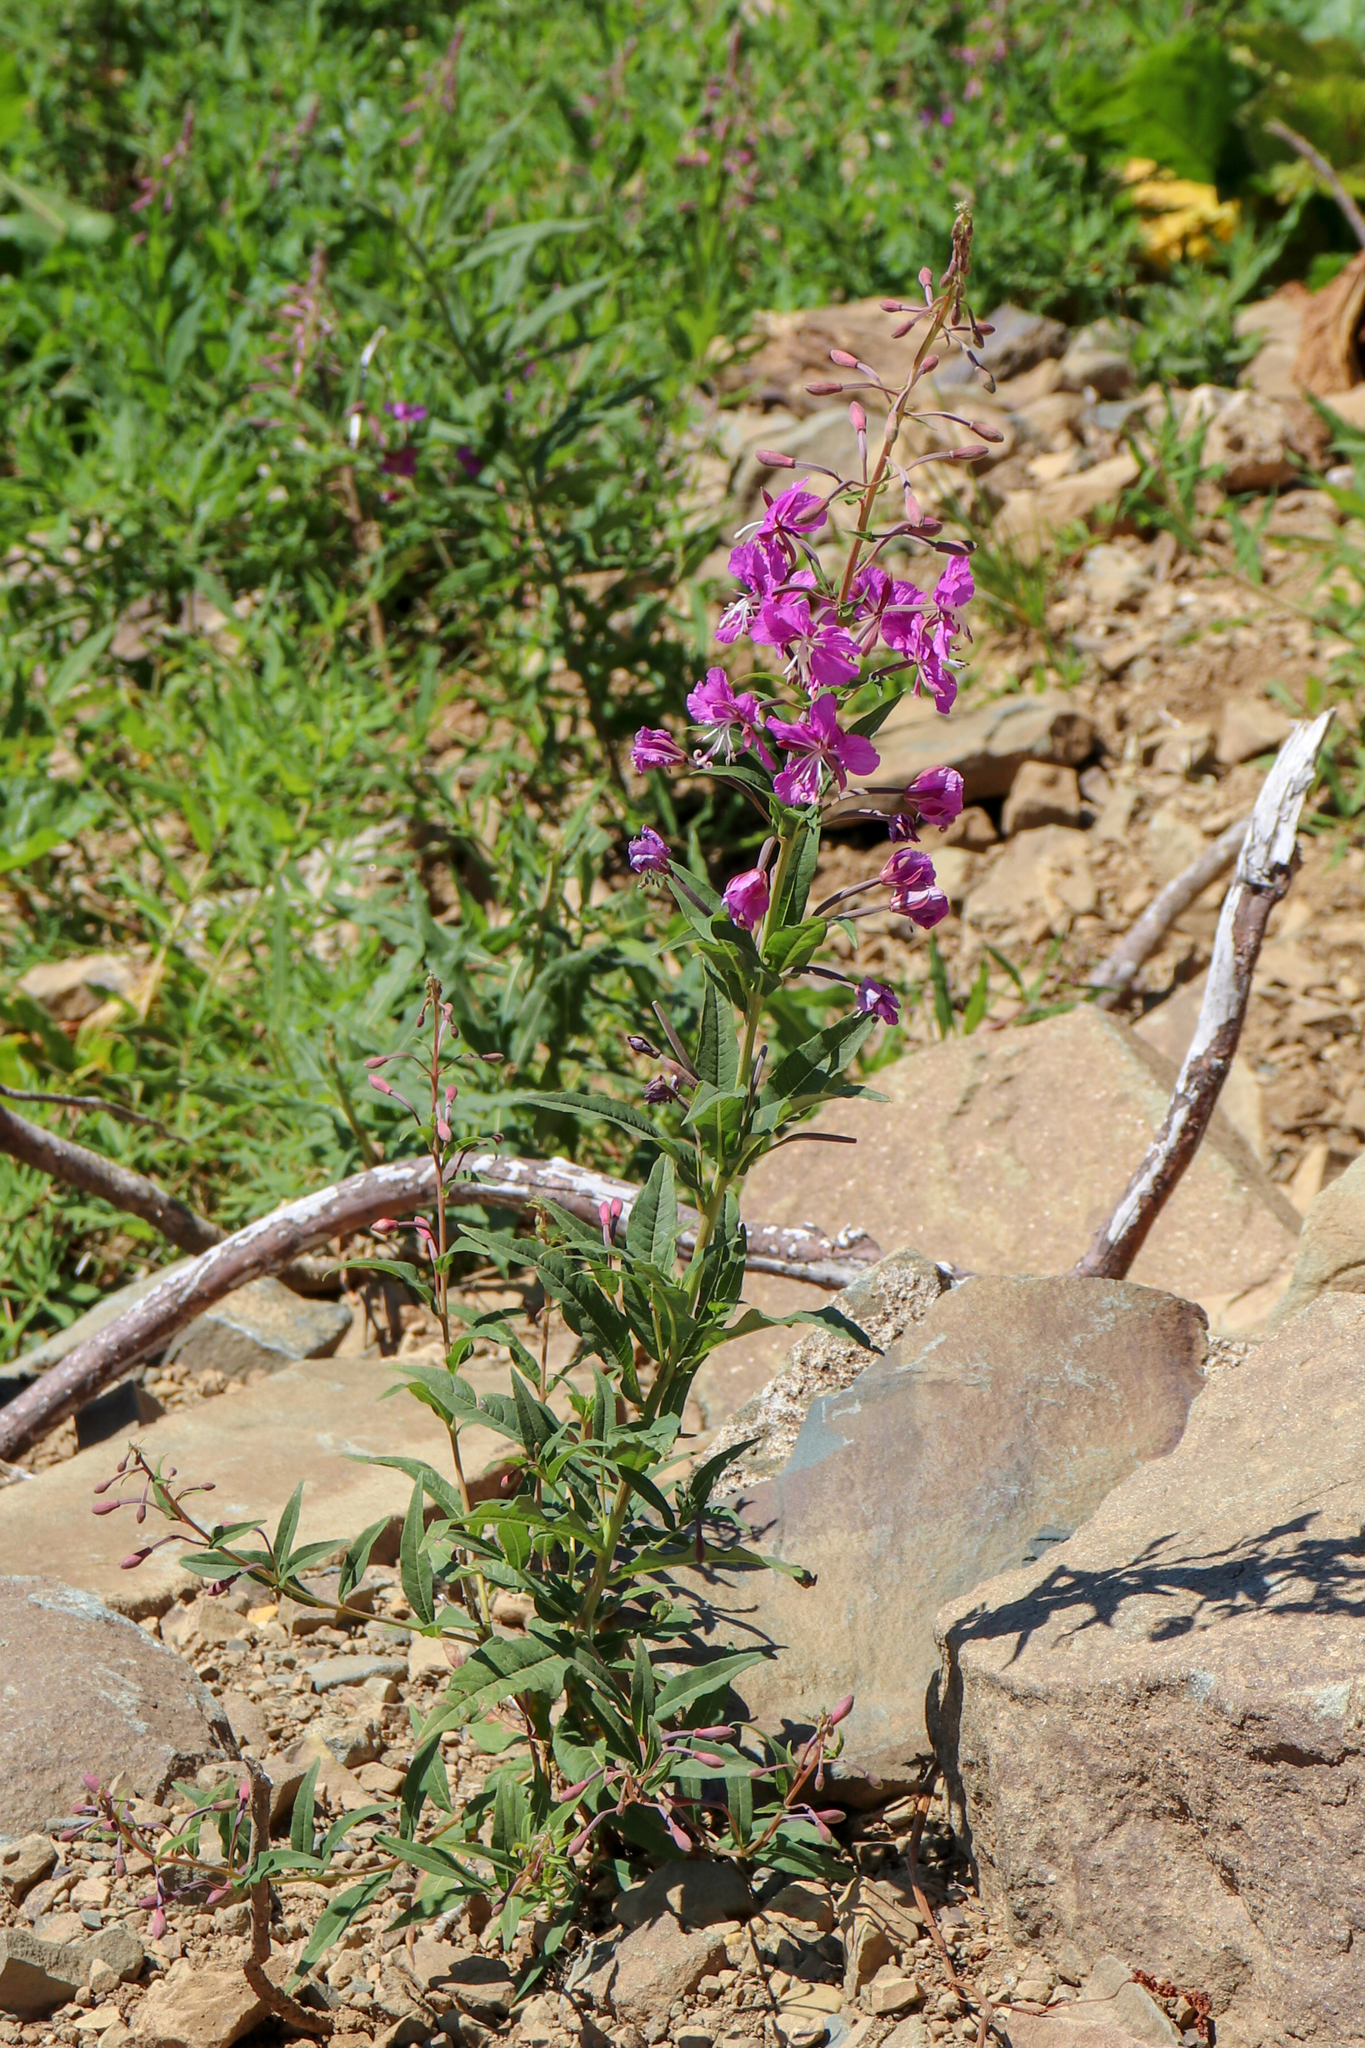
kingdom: Plantae
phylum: Tracheophyta
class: Magnoliopsida
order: Myrtales
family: Onagraceae
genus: Chamaenerion
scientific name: Chamaenerion angustifolium
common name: Fireweed
